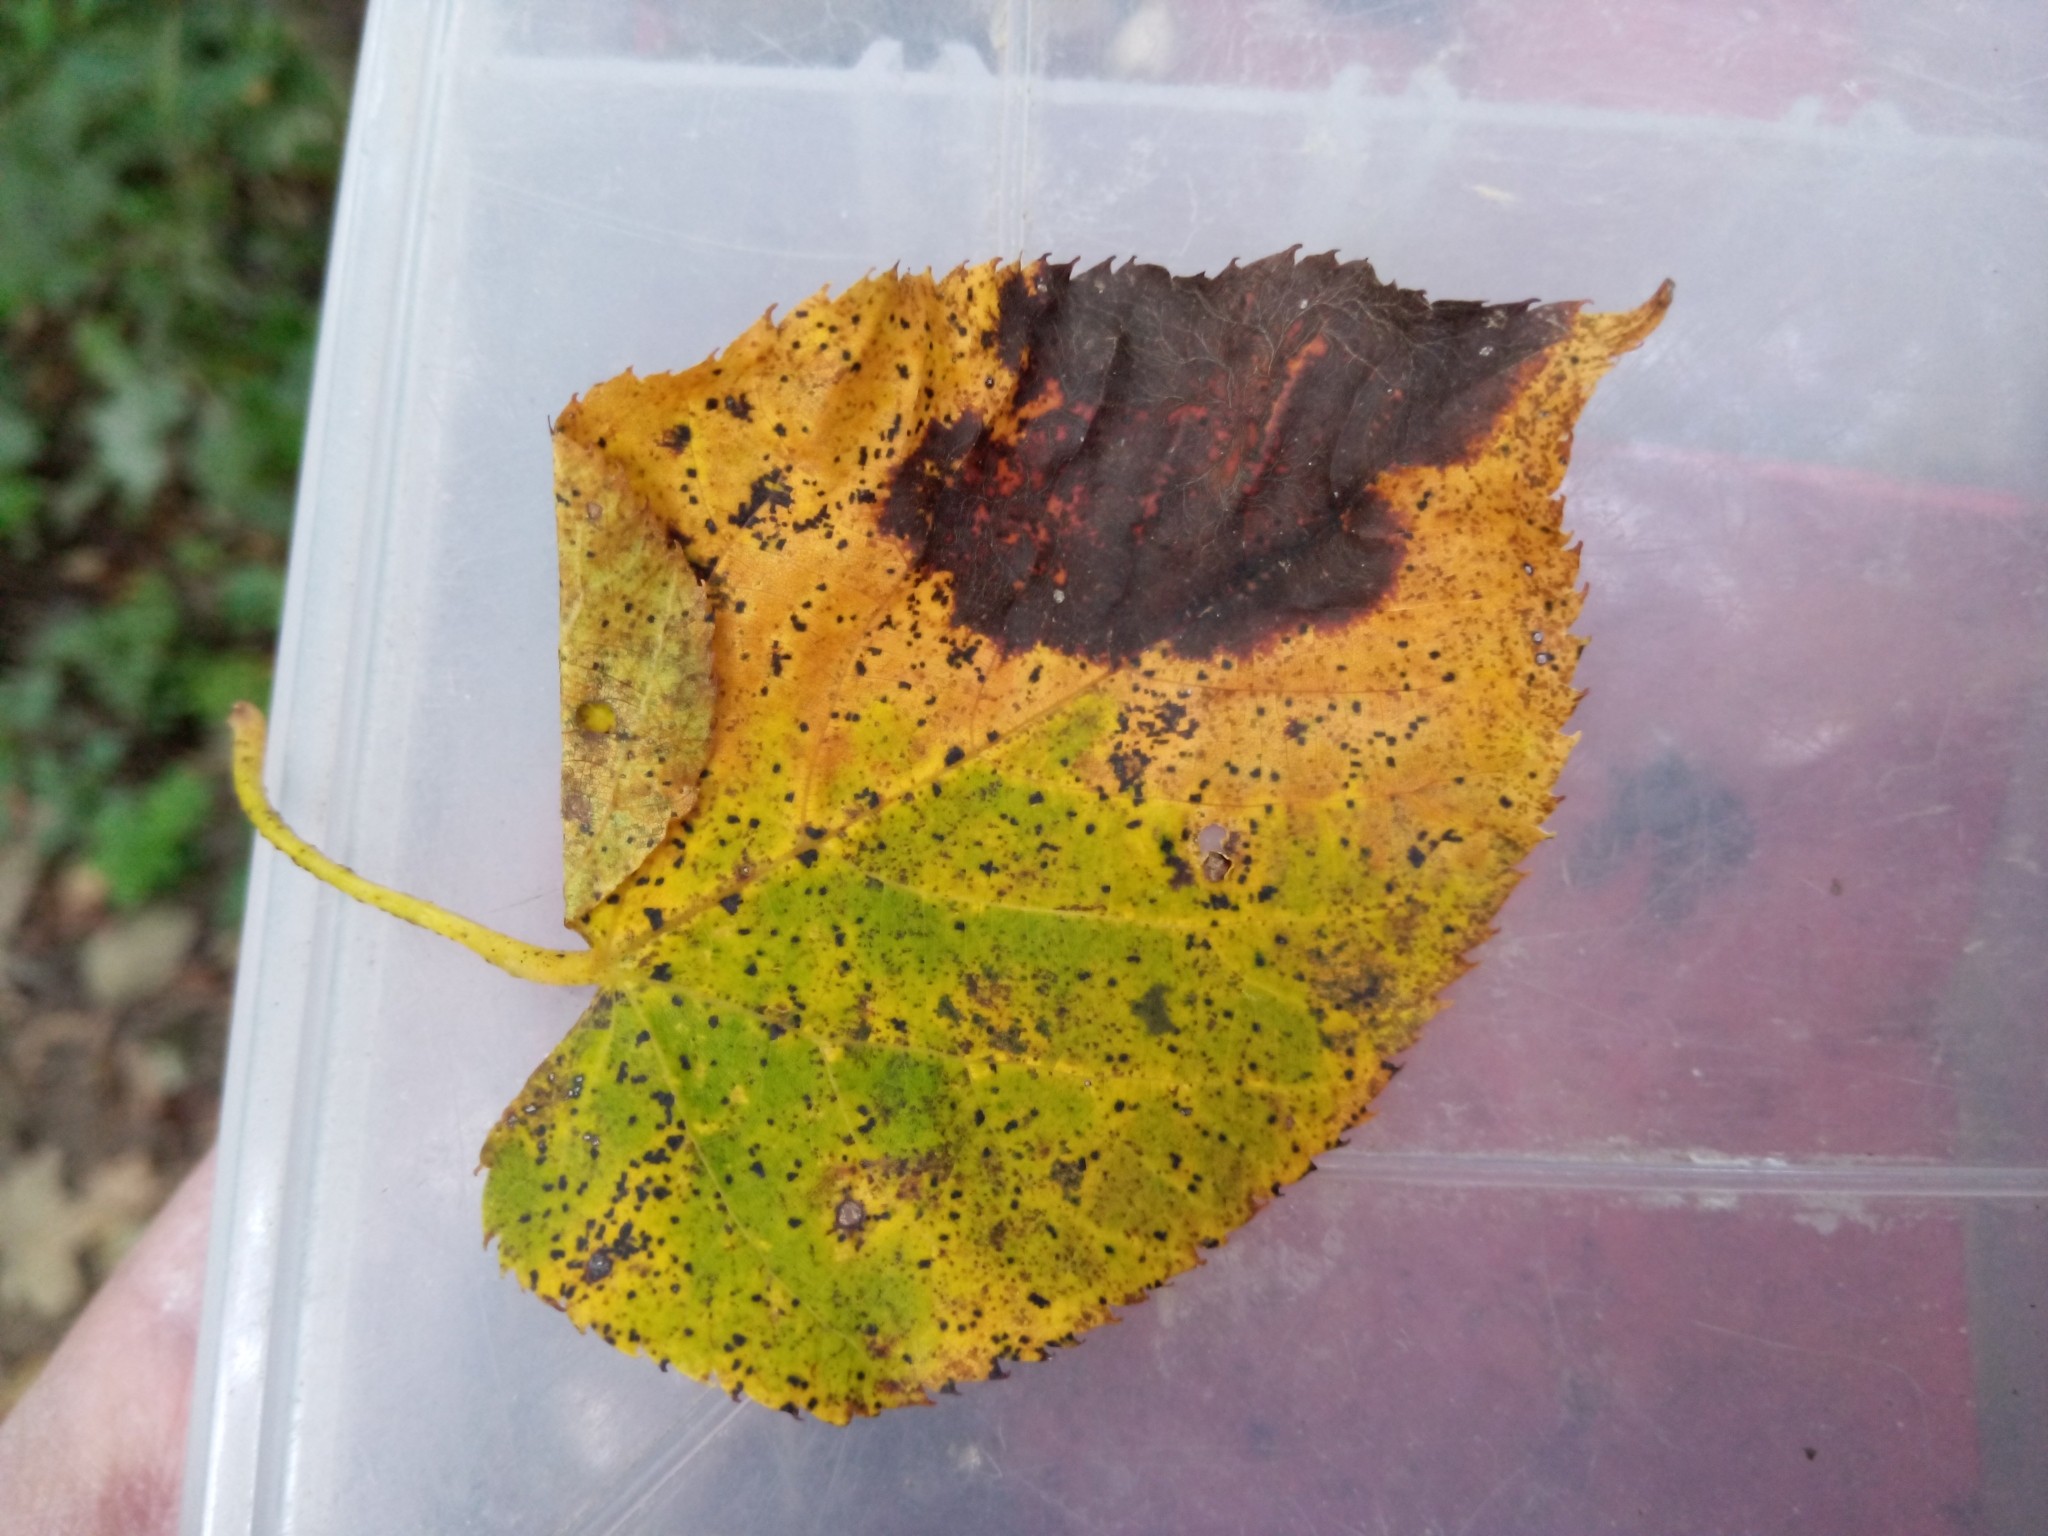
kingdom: Fungi
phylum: Ascomycota
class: Dothideomycetes
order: Pleosporales
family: Didymosphaeriaceae
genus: Paraconiothyrium
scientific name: Paraconiothyrium tiliae
